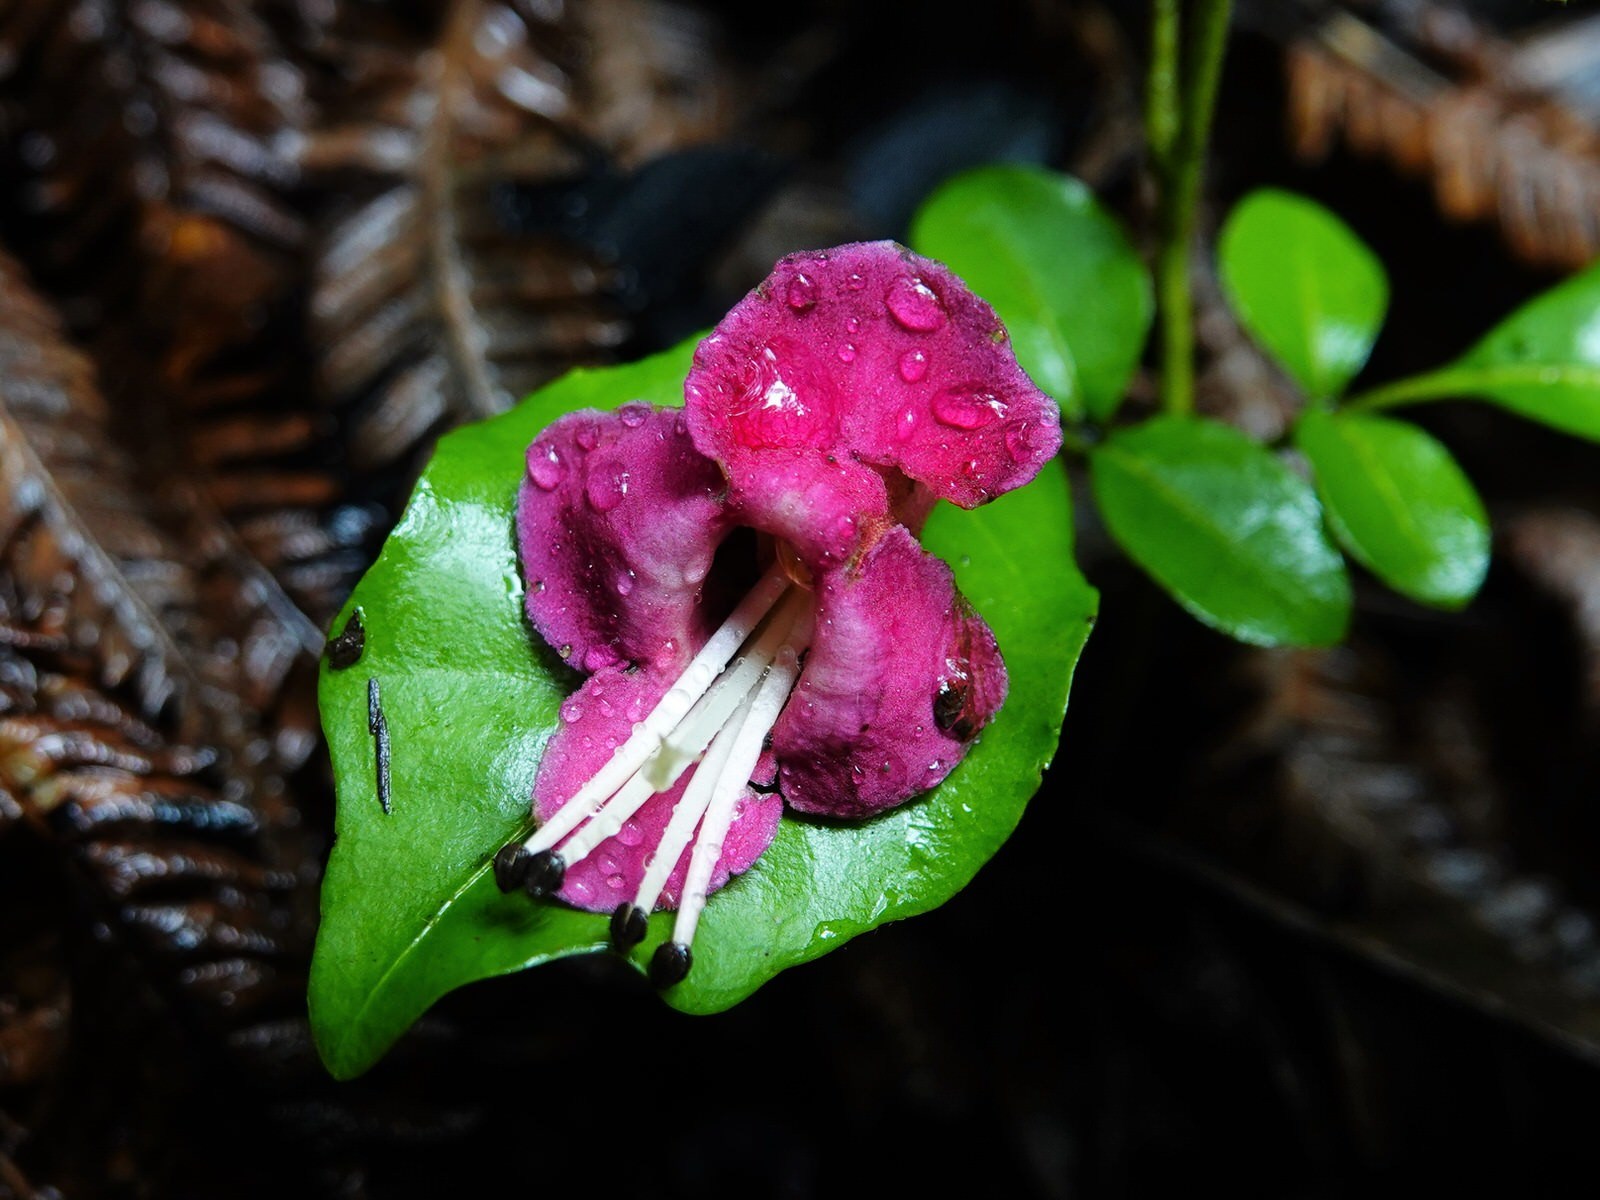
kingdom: Plantae
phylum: Tracheophyta
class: Magnoliopsida
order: Lamiales
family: Lamiaceae
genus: Vitex
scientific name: Vitex lucens
